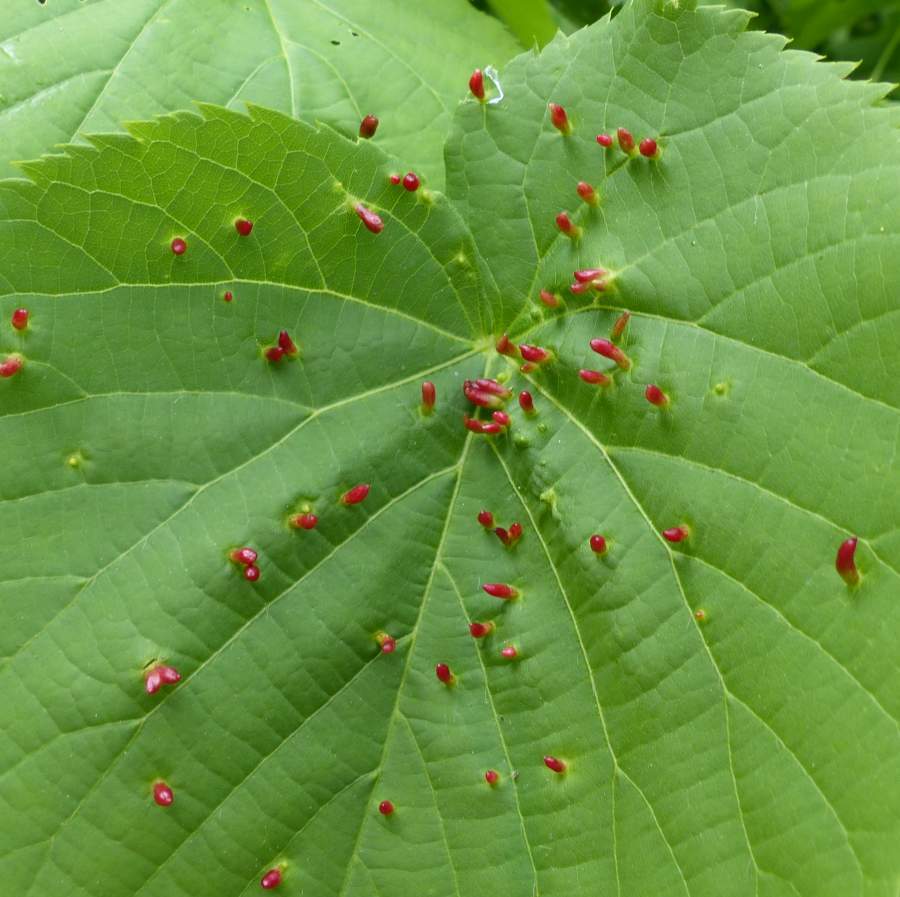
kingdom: Animalia
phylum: Arthropoda
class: Arachnida
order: Trombidiformes
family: Eriophyidae
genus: Eriophyes
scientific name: Eriophyes tiliae
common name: Red nail gall mite
